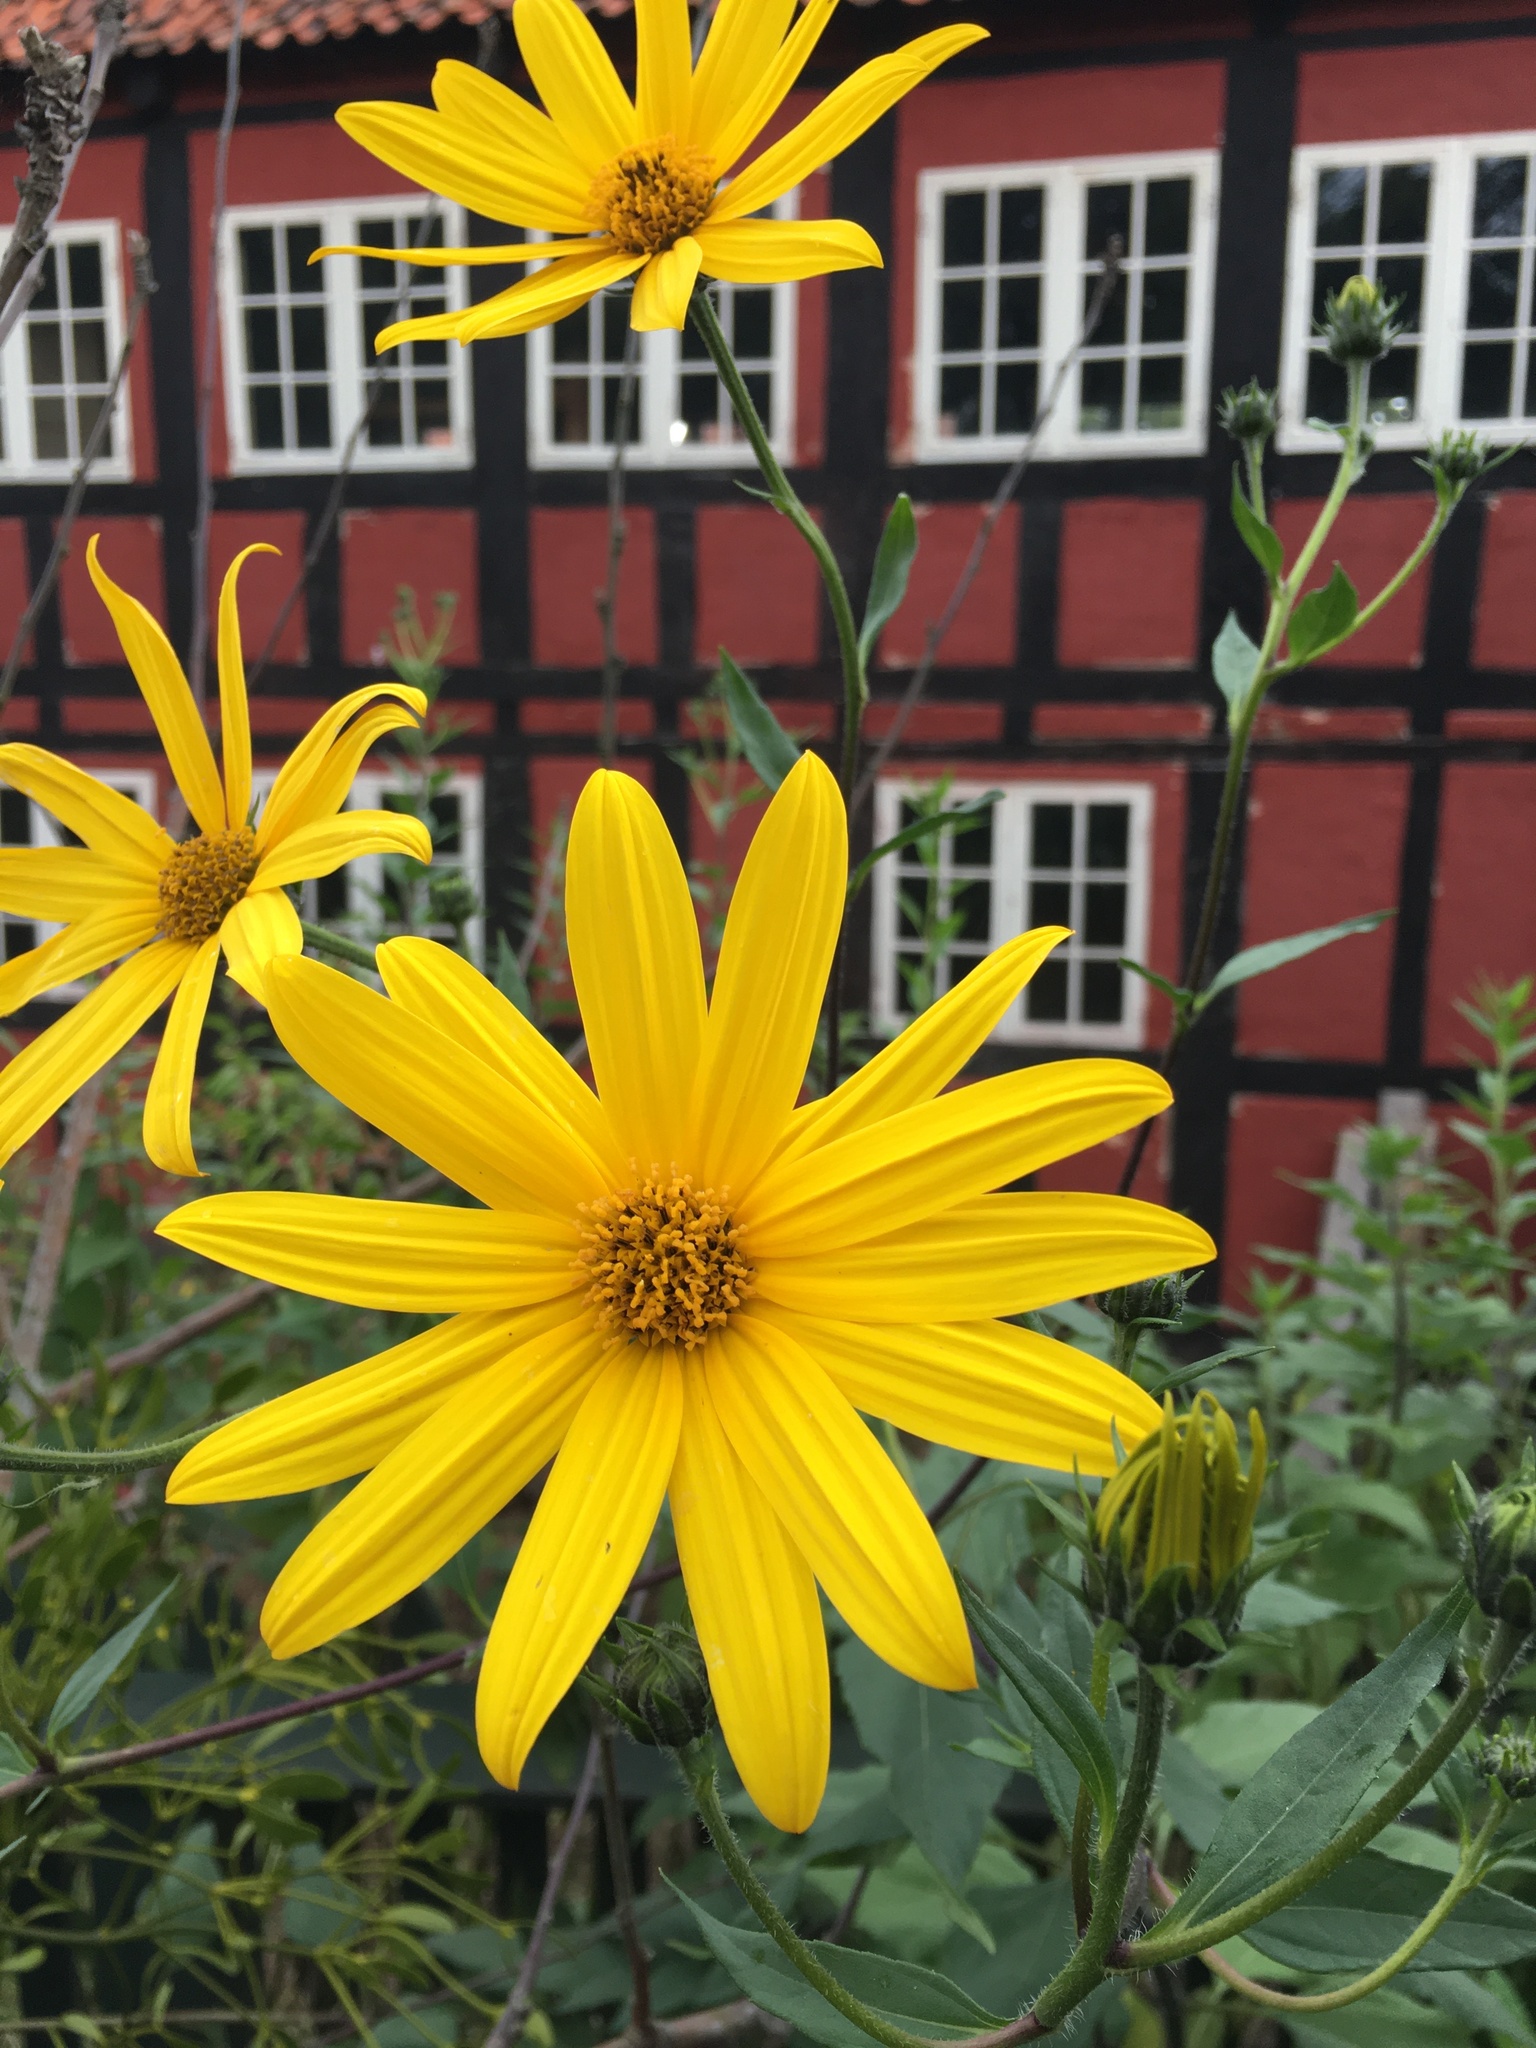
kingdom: Plantae
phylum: Tracheophyta
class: Magnoliopsida
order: Asterales
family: Asteraceae
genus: Helianthus
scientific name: Helianthus tuberosus
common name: Jerusalem artichoke
